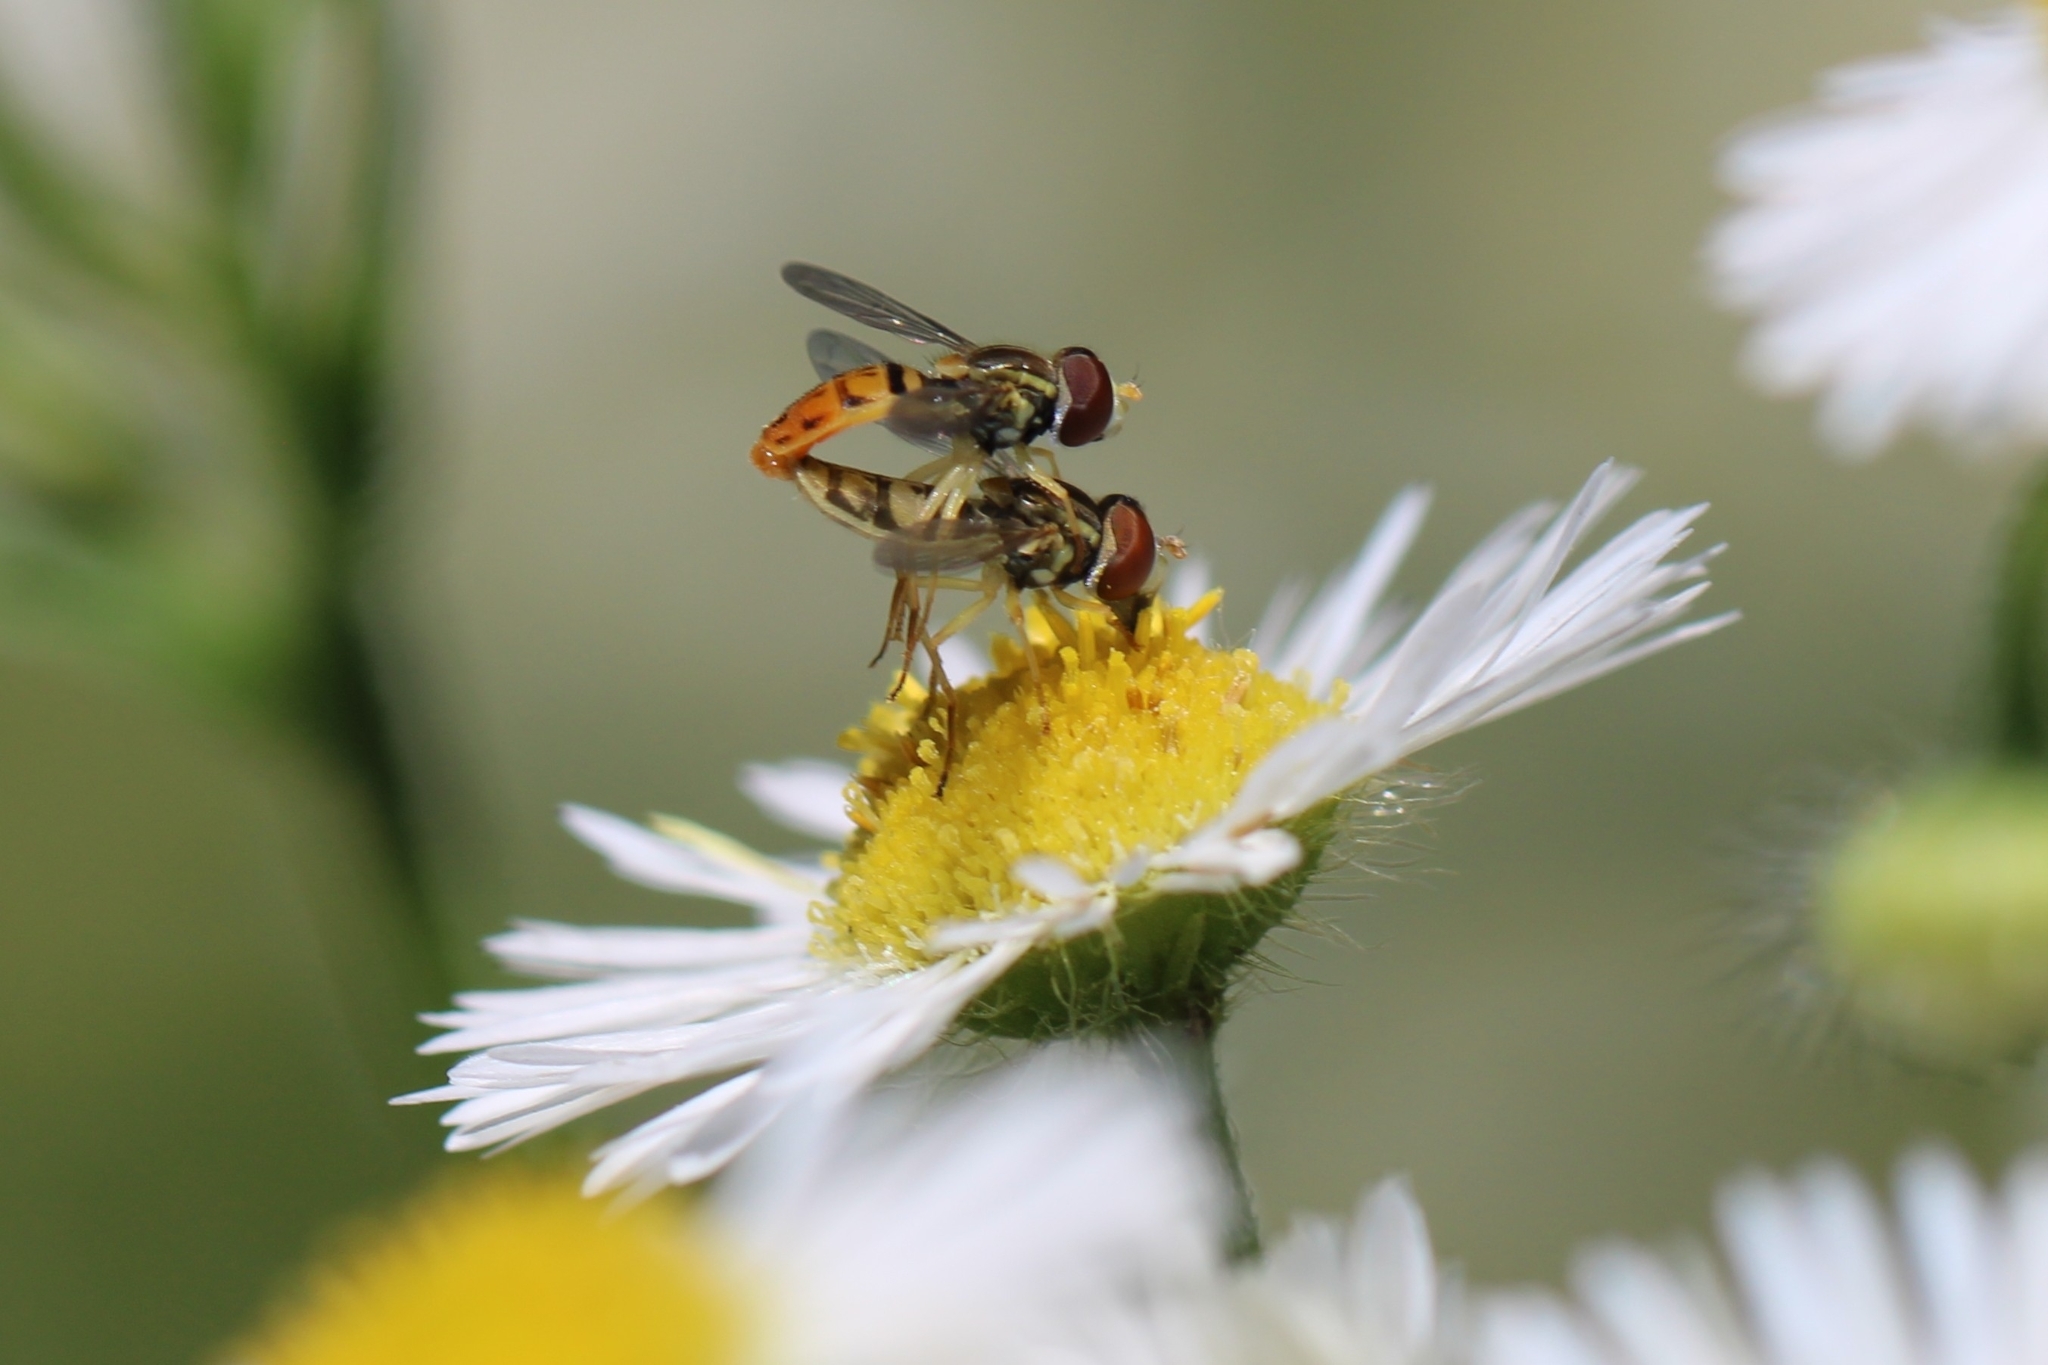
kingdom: Animalia
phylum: Arthropoda
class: Insecta
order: Diptera
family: Syrphidae
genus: Toxomerus
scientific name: Toxomerus marginatus
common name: Syrphid fly
